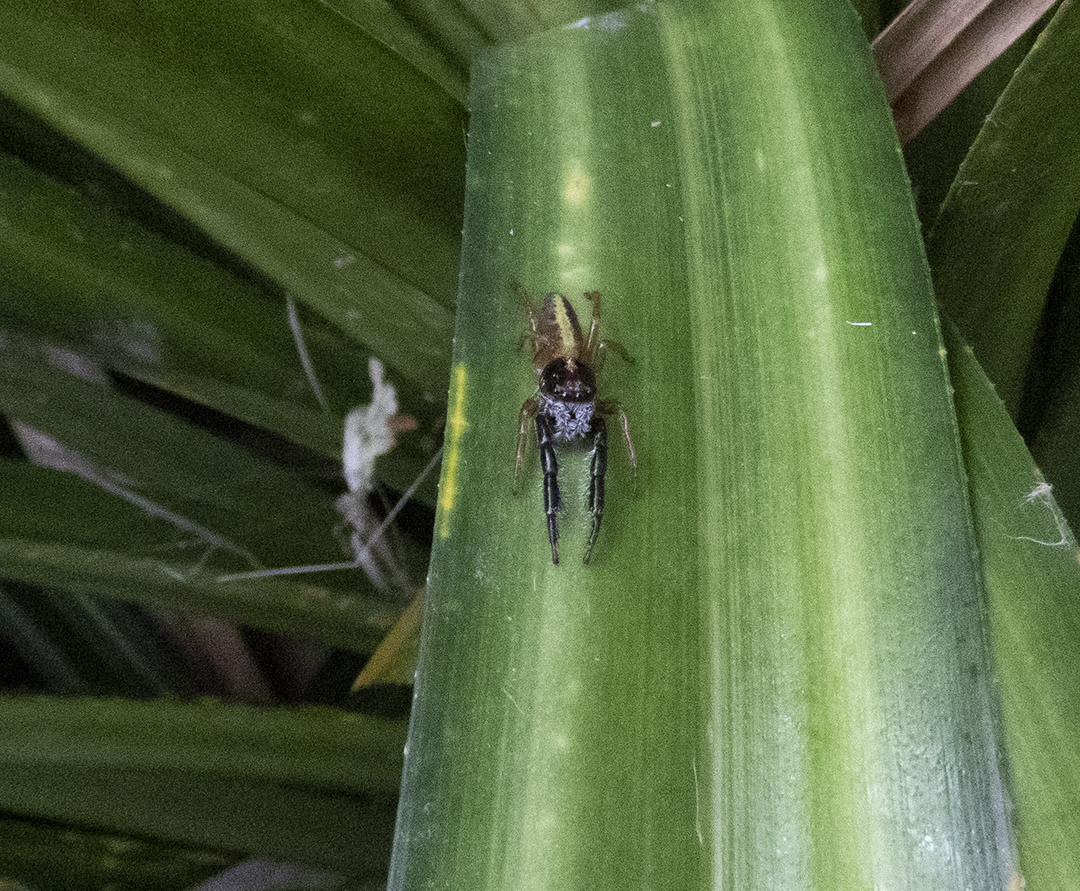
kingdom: Animalia
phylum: Arthropoda
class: Arachnida
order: Araneae
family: Salticidae
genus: Trite
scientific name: Trite planiceps
